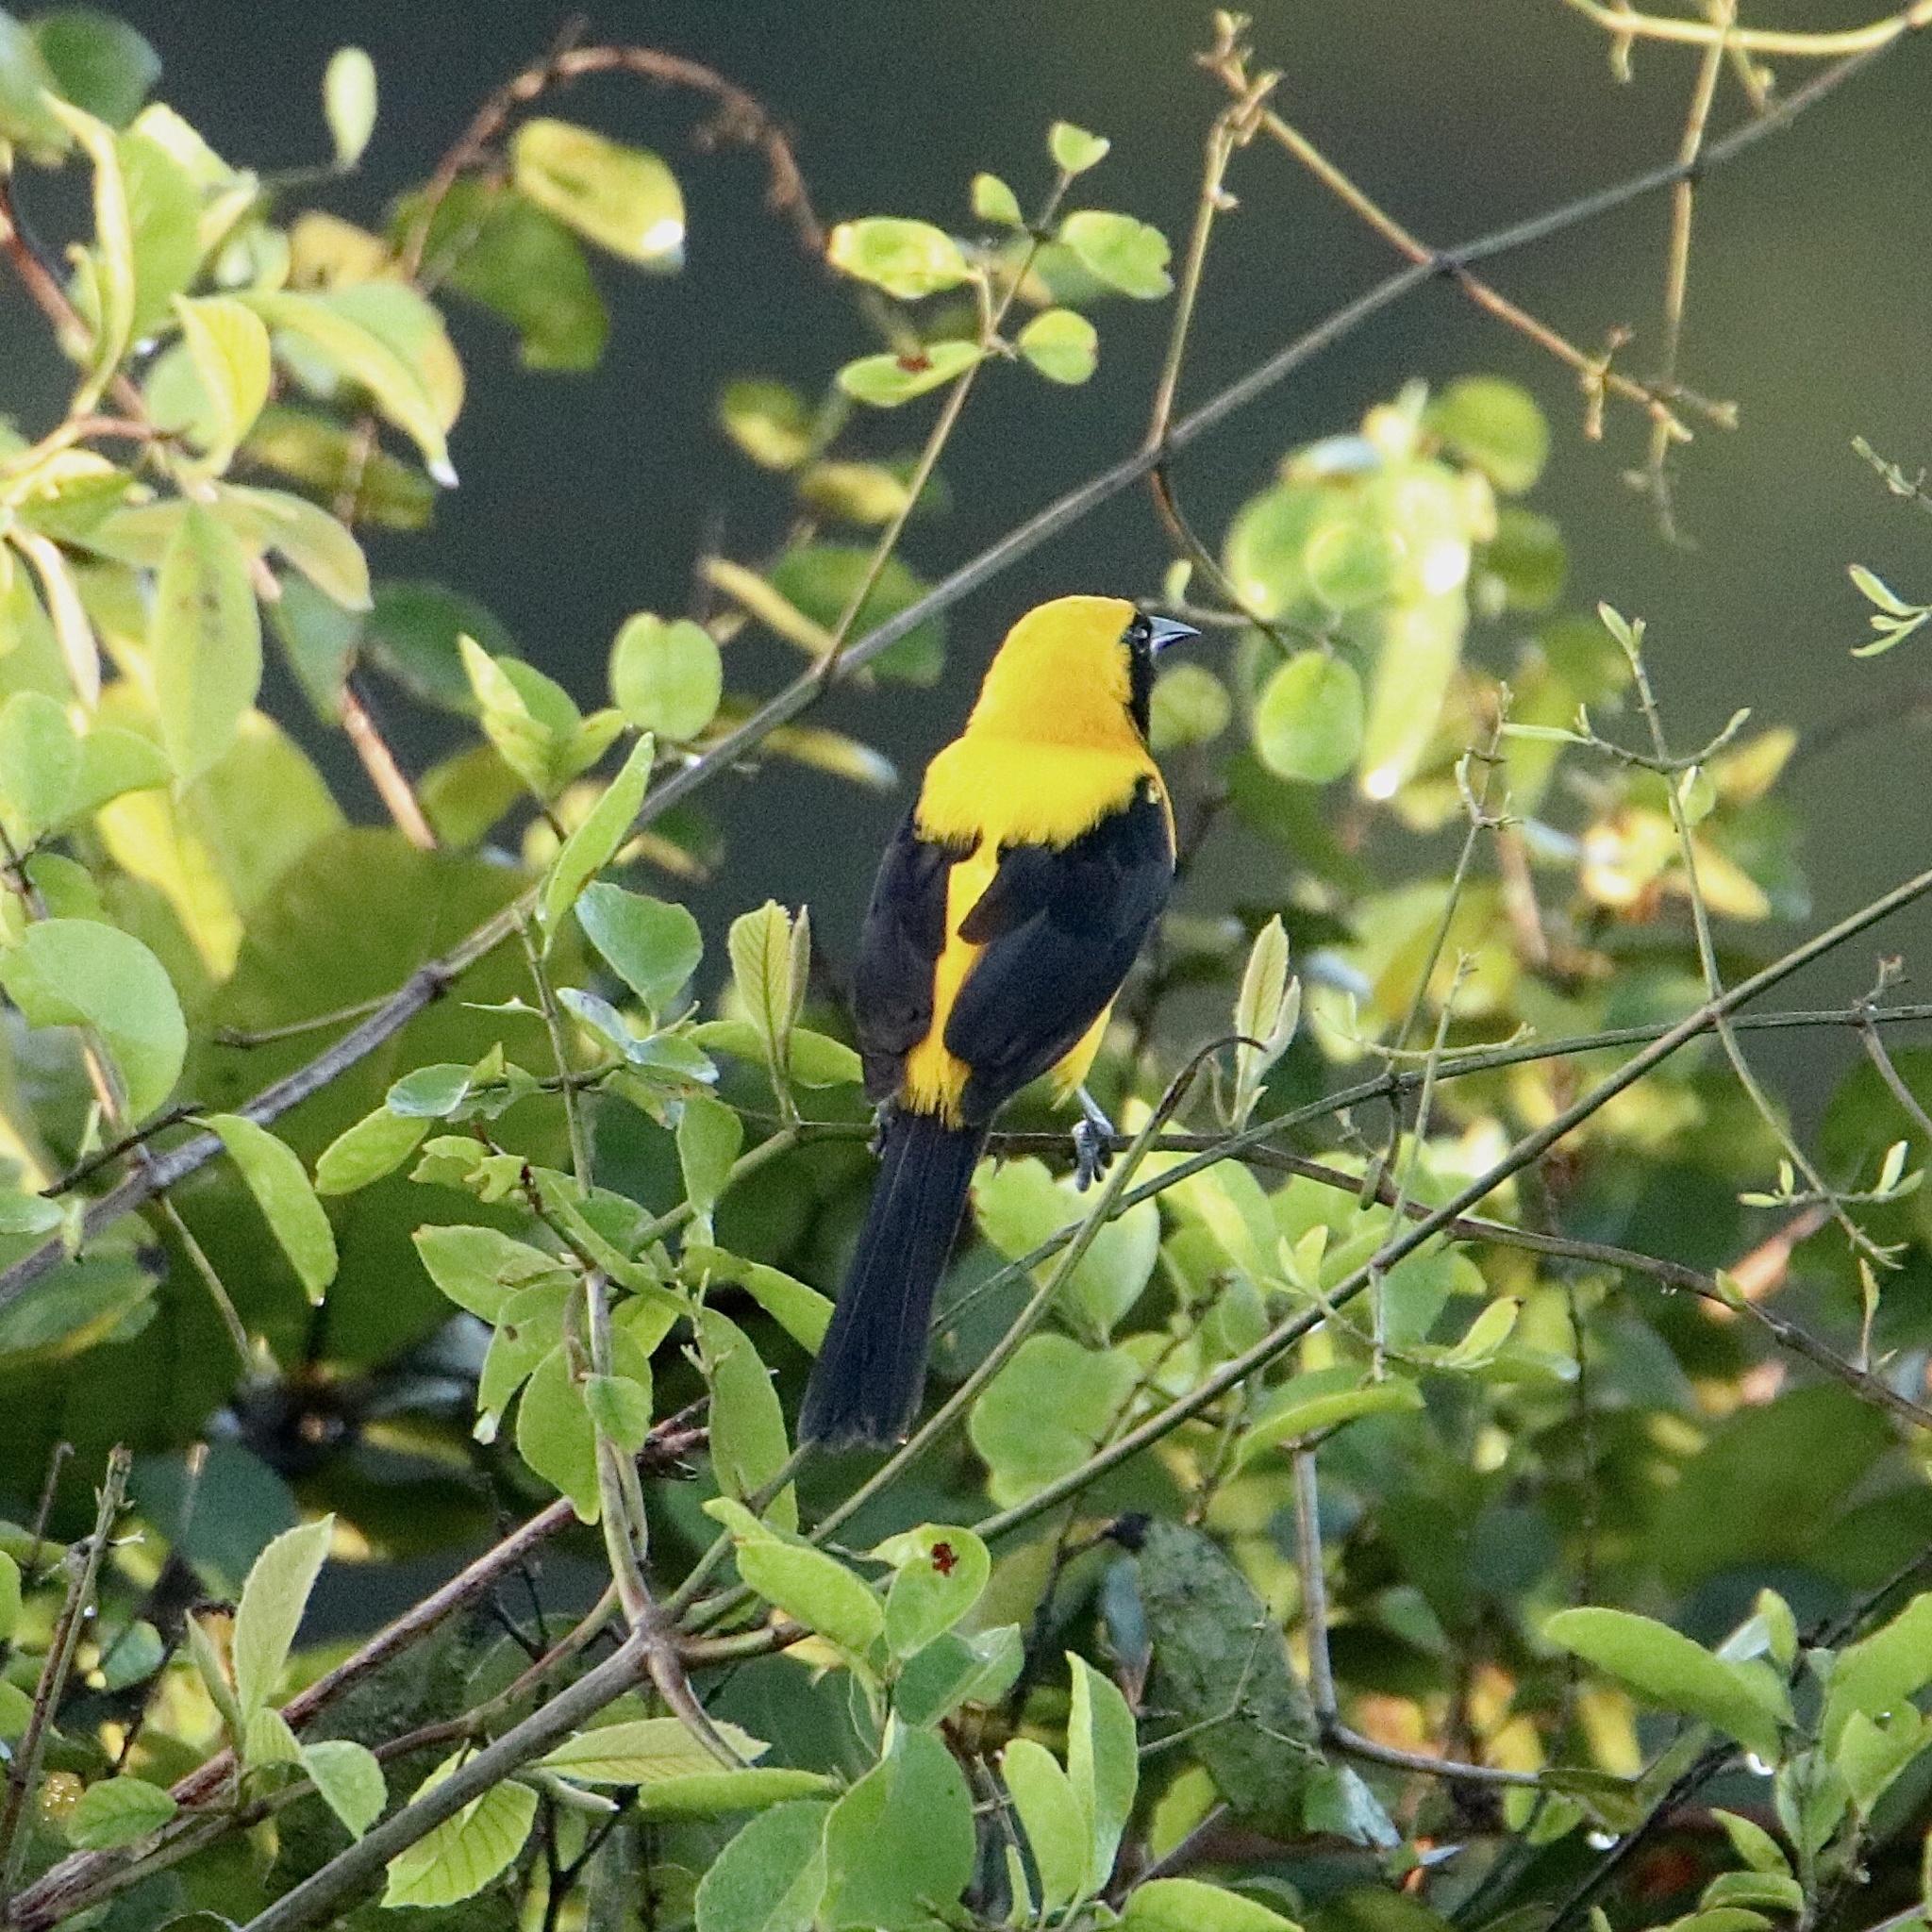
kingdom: Animalia
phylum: Chordata
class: Aves
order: Passeriformes
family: Icteridae
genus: Icterus
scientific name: Icterus chrysater
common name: Yellow-backed oriole
